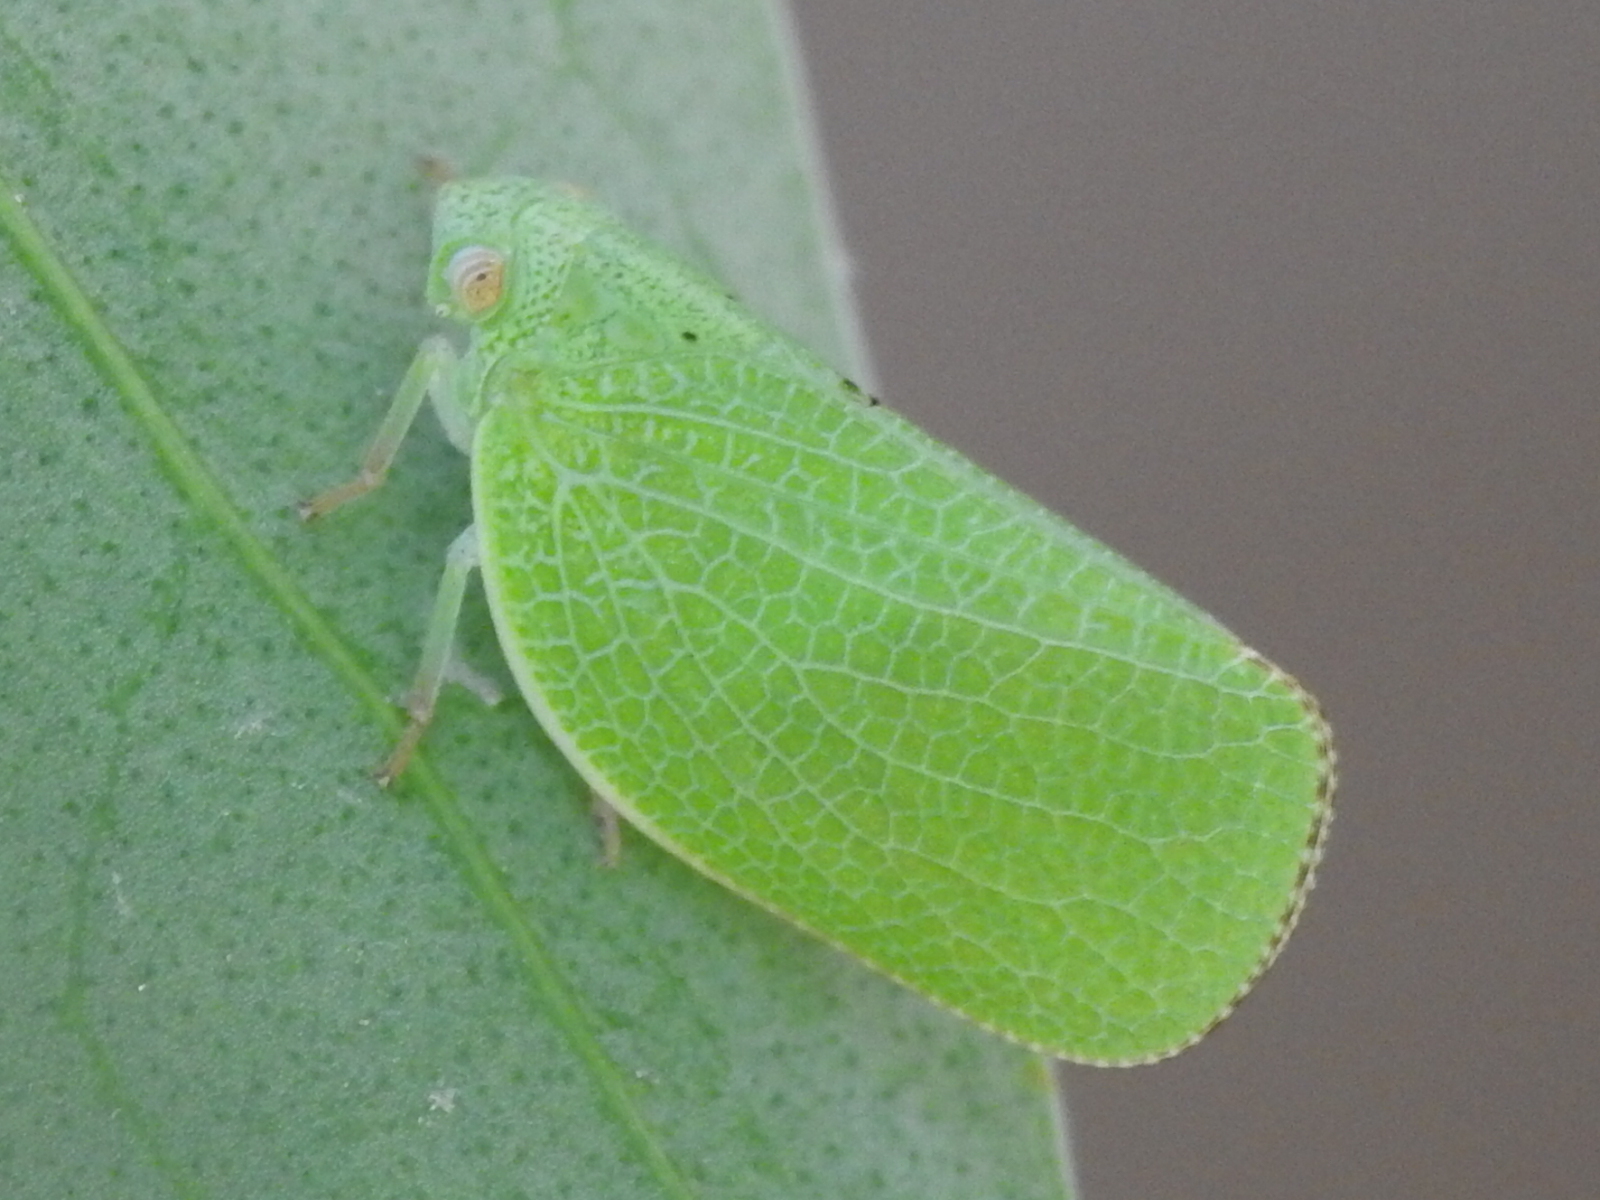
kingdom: Animalia
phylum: Arthropoda
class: Insecta
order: Hemiptera
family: Acanaloniidae
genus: Acanalonia
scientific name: Acanalonia conica
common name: Green cone-headed planthopper
